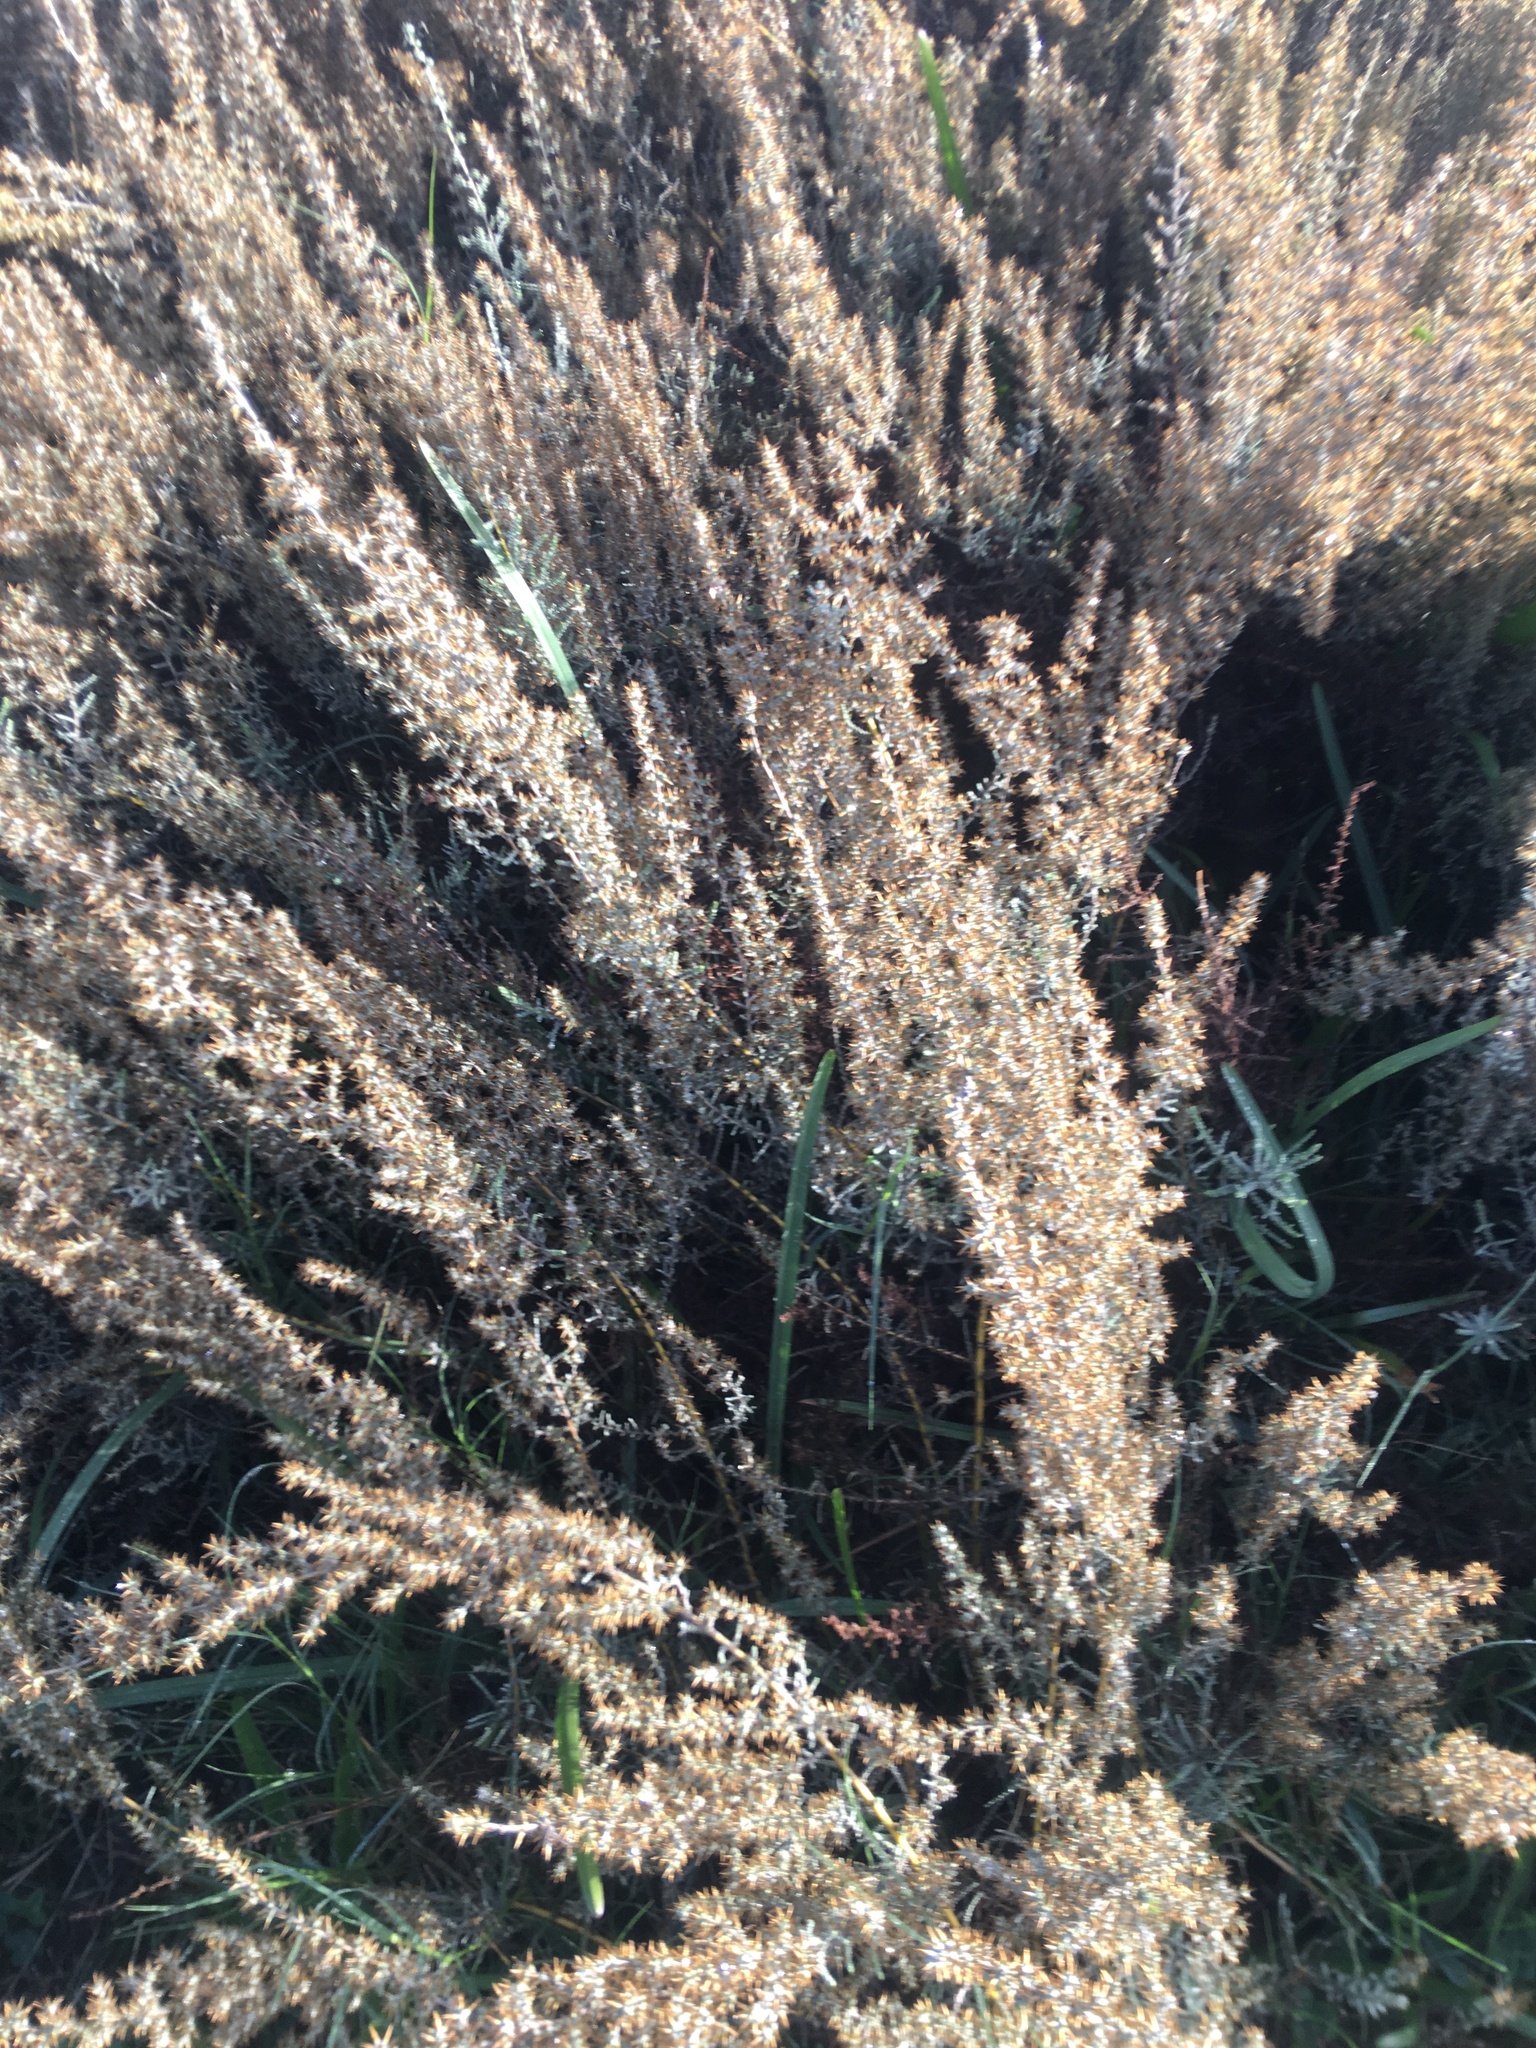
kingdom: Plantae
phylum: Tracheophyta
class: Magnoliopsida
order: Asterales
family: Asteraceae
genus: Seriphium
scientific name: Seriphium plumosum
